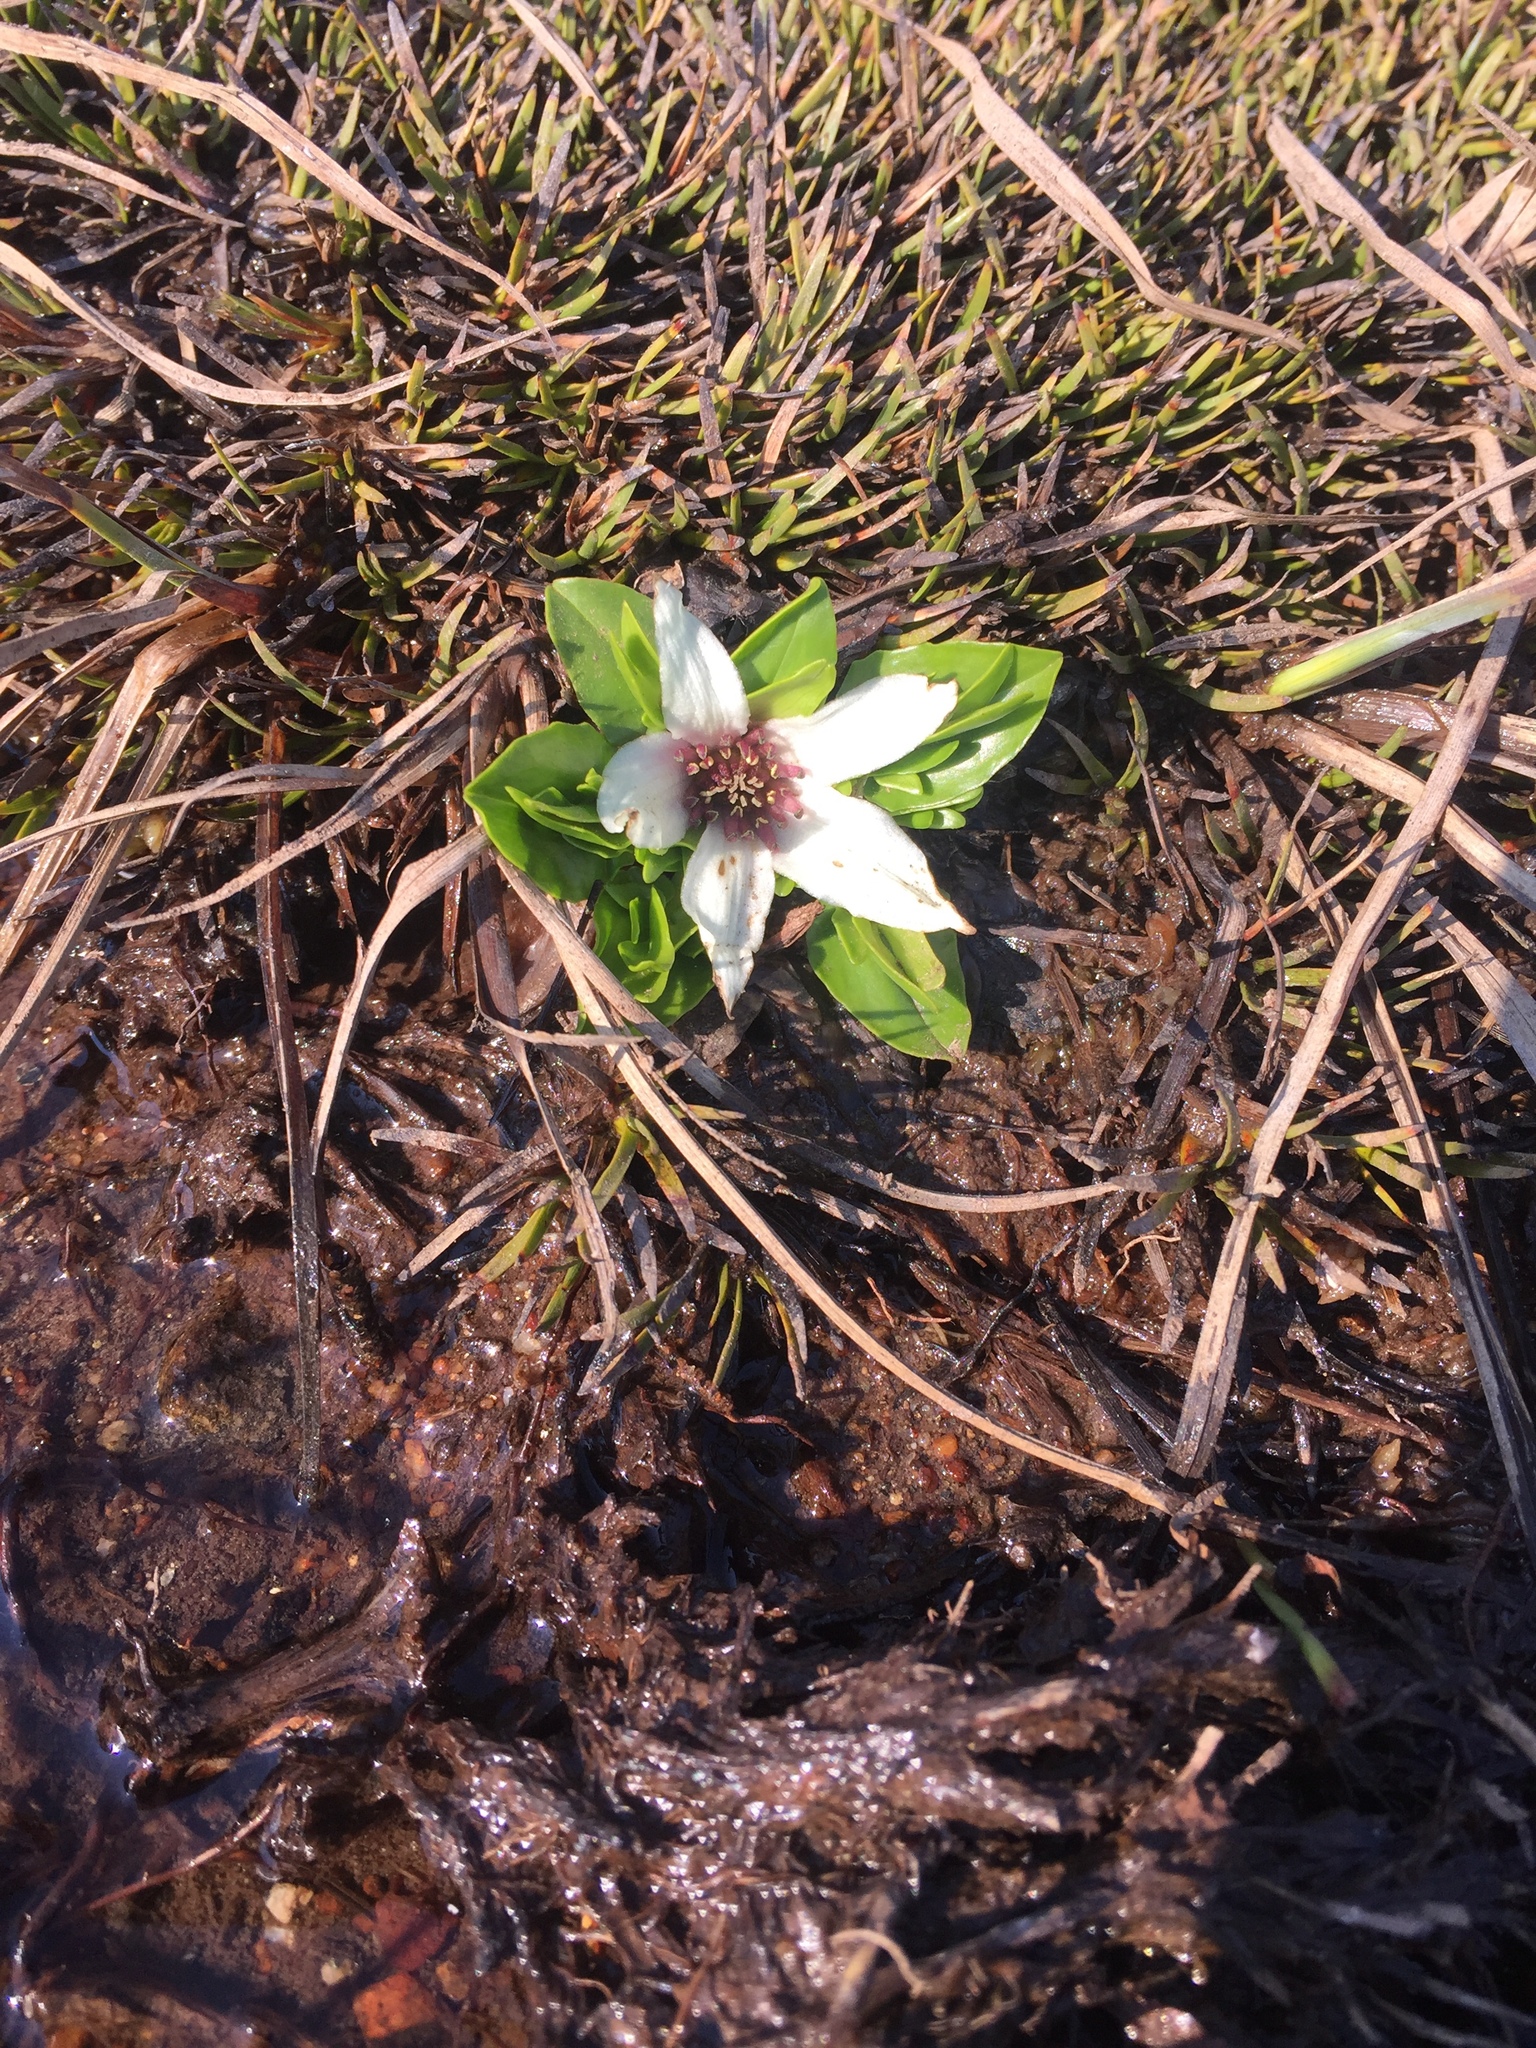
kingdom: Plantae
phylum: Tracheophyta
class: Magnoliopsida
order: Ranunculales
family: Ranunculaceae
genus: Caltha
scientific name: Caltha introloba
